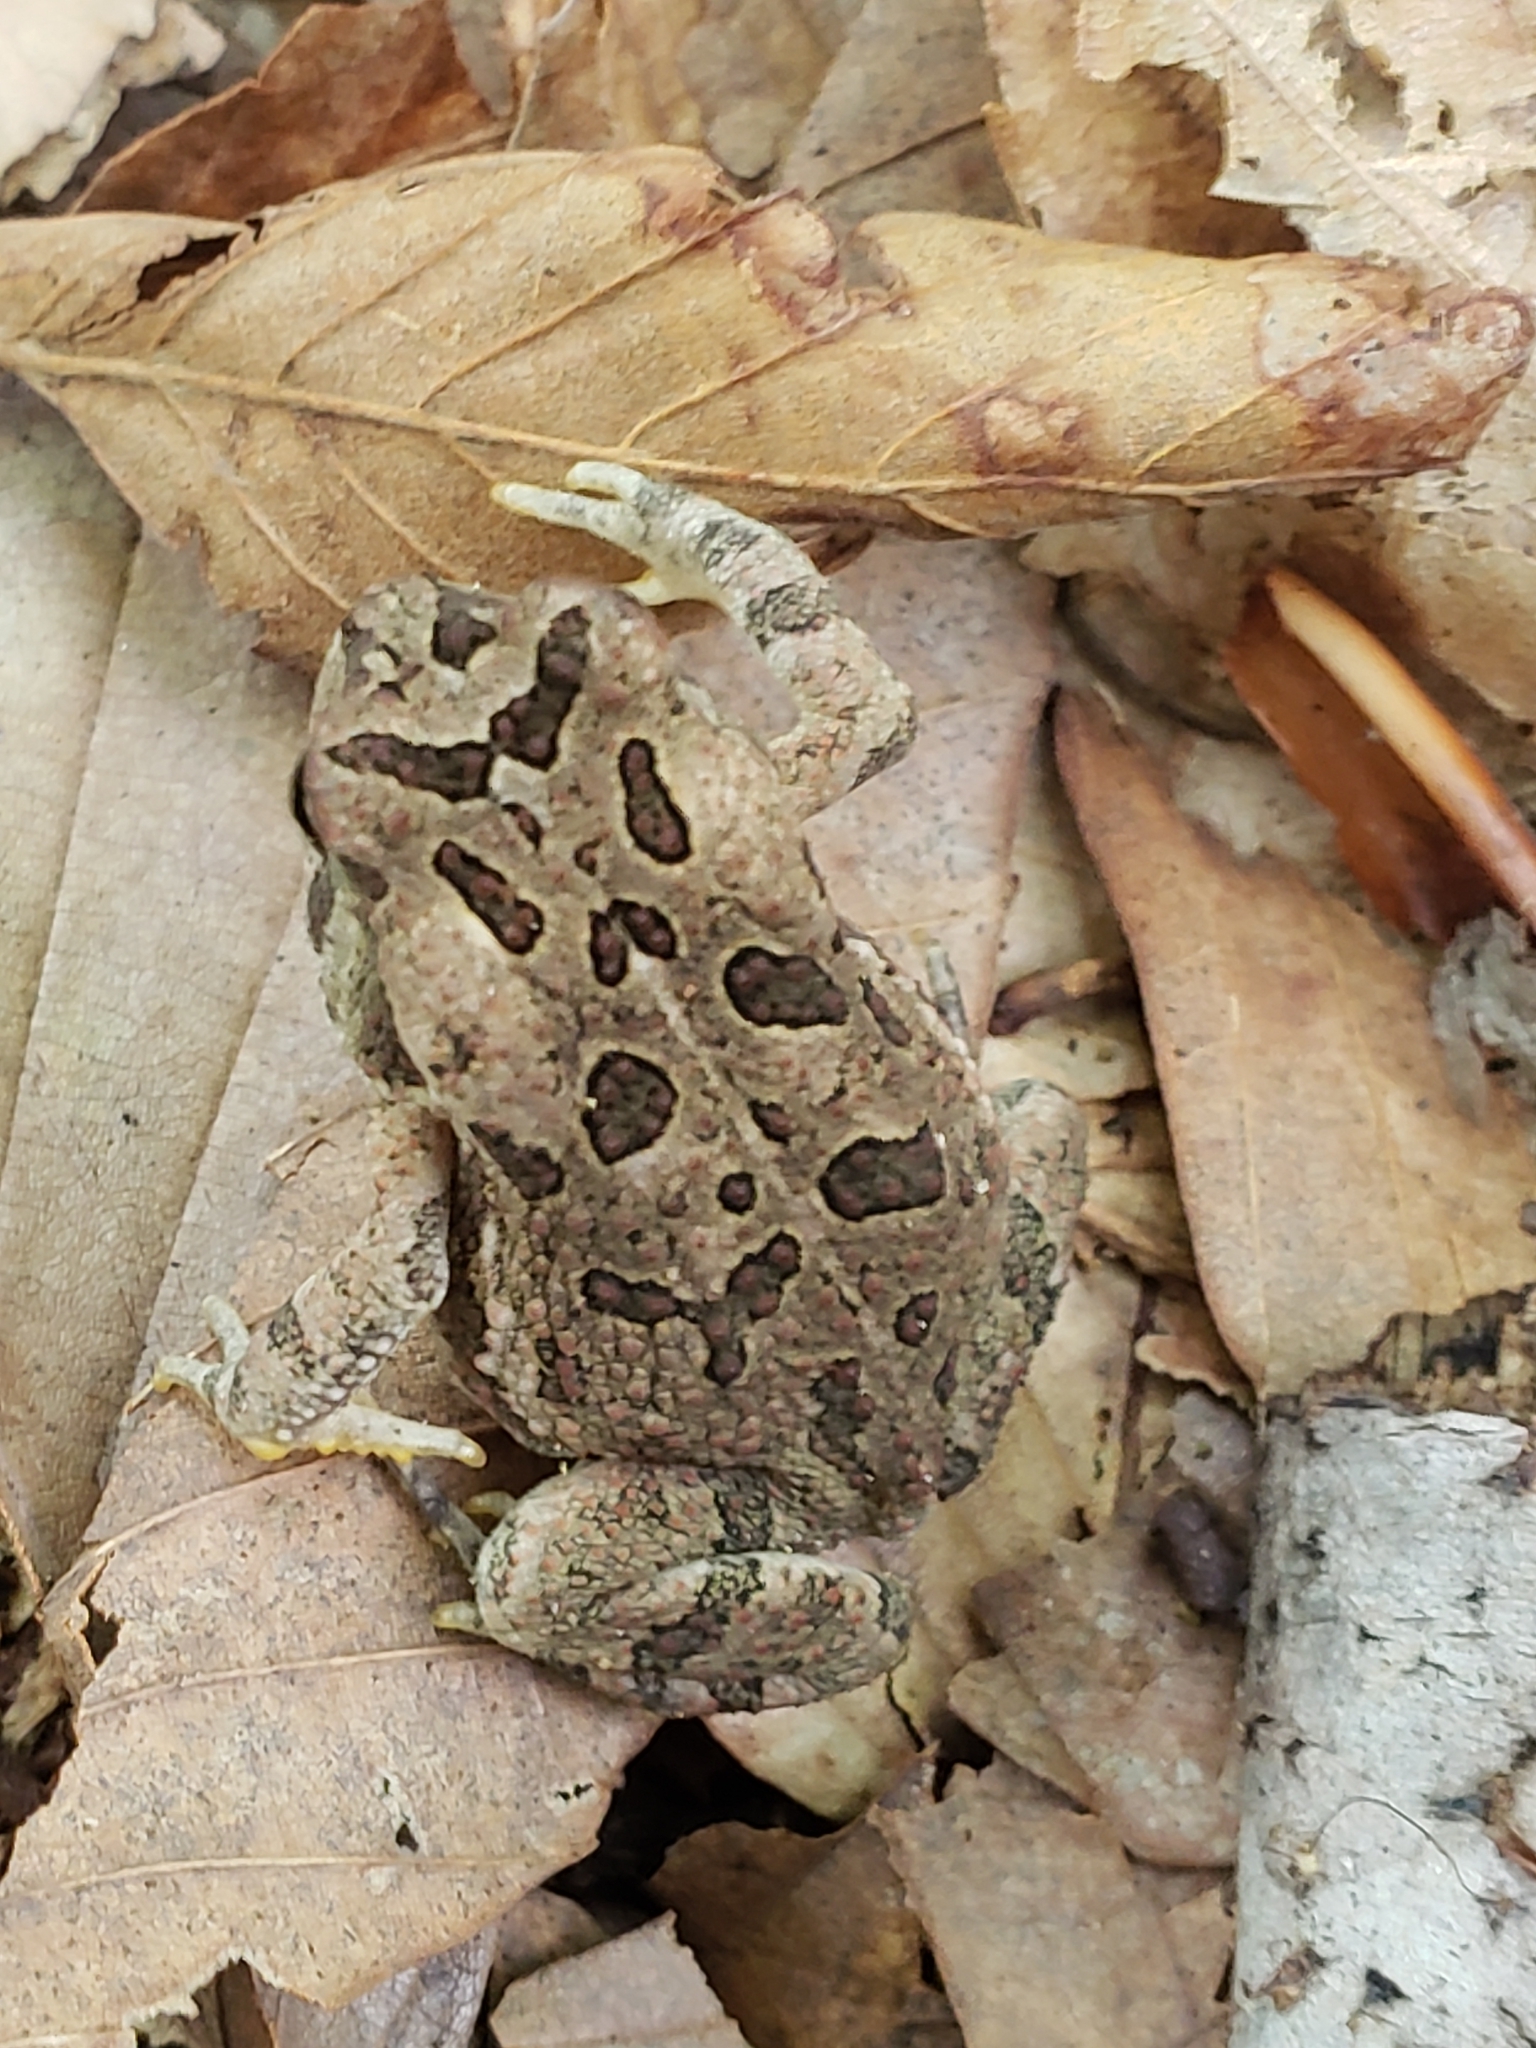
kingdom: Animalia
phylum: Chordata
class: Amphibia
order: Anura
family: Bufonidae
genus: Anaxyrus
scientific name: Anaxyrus fowleri
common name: Fowler's toad
